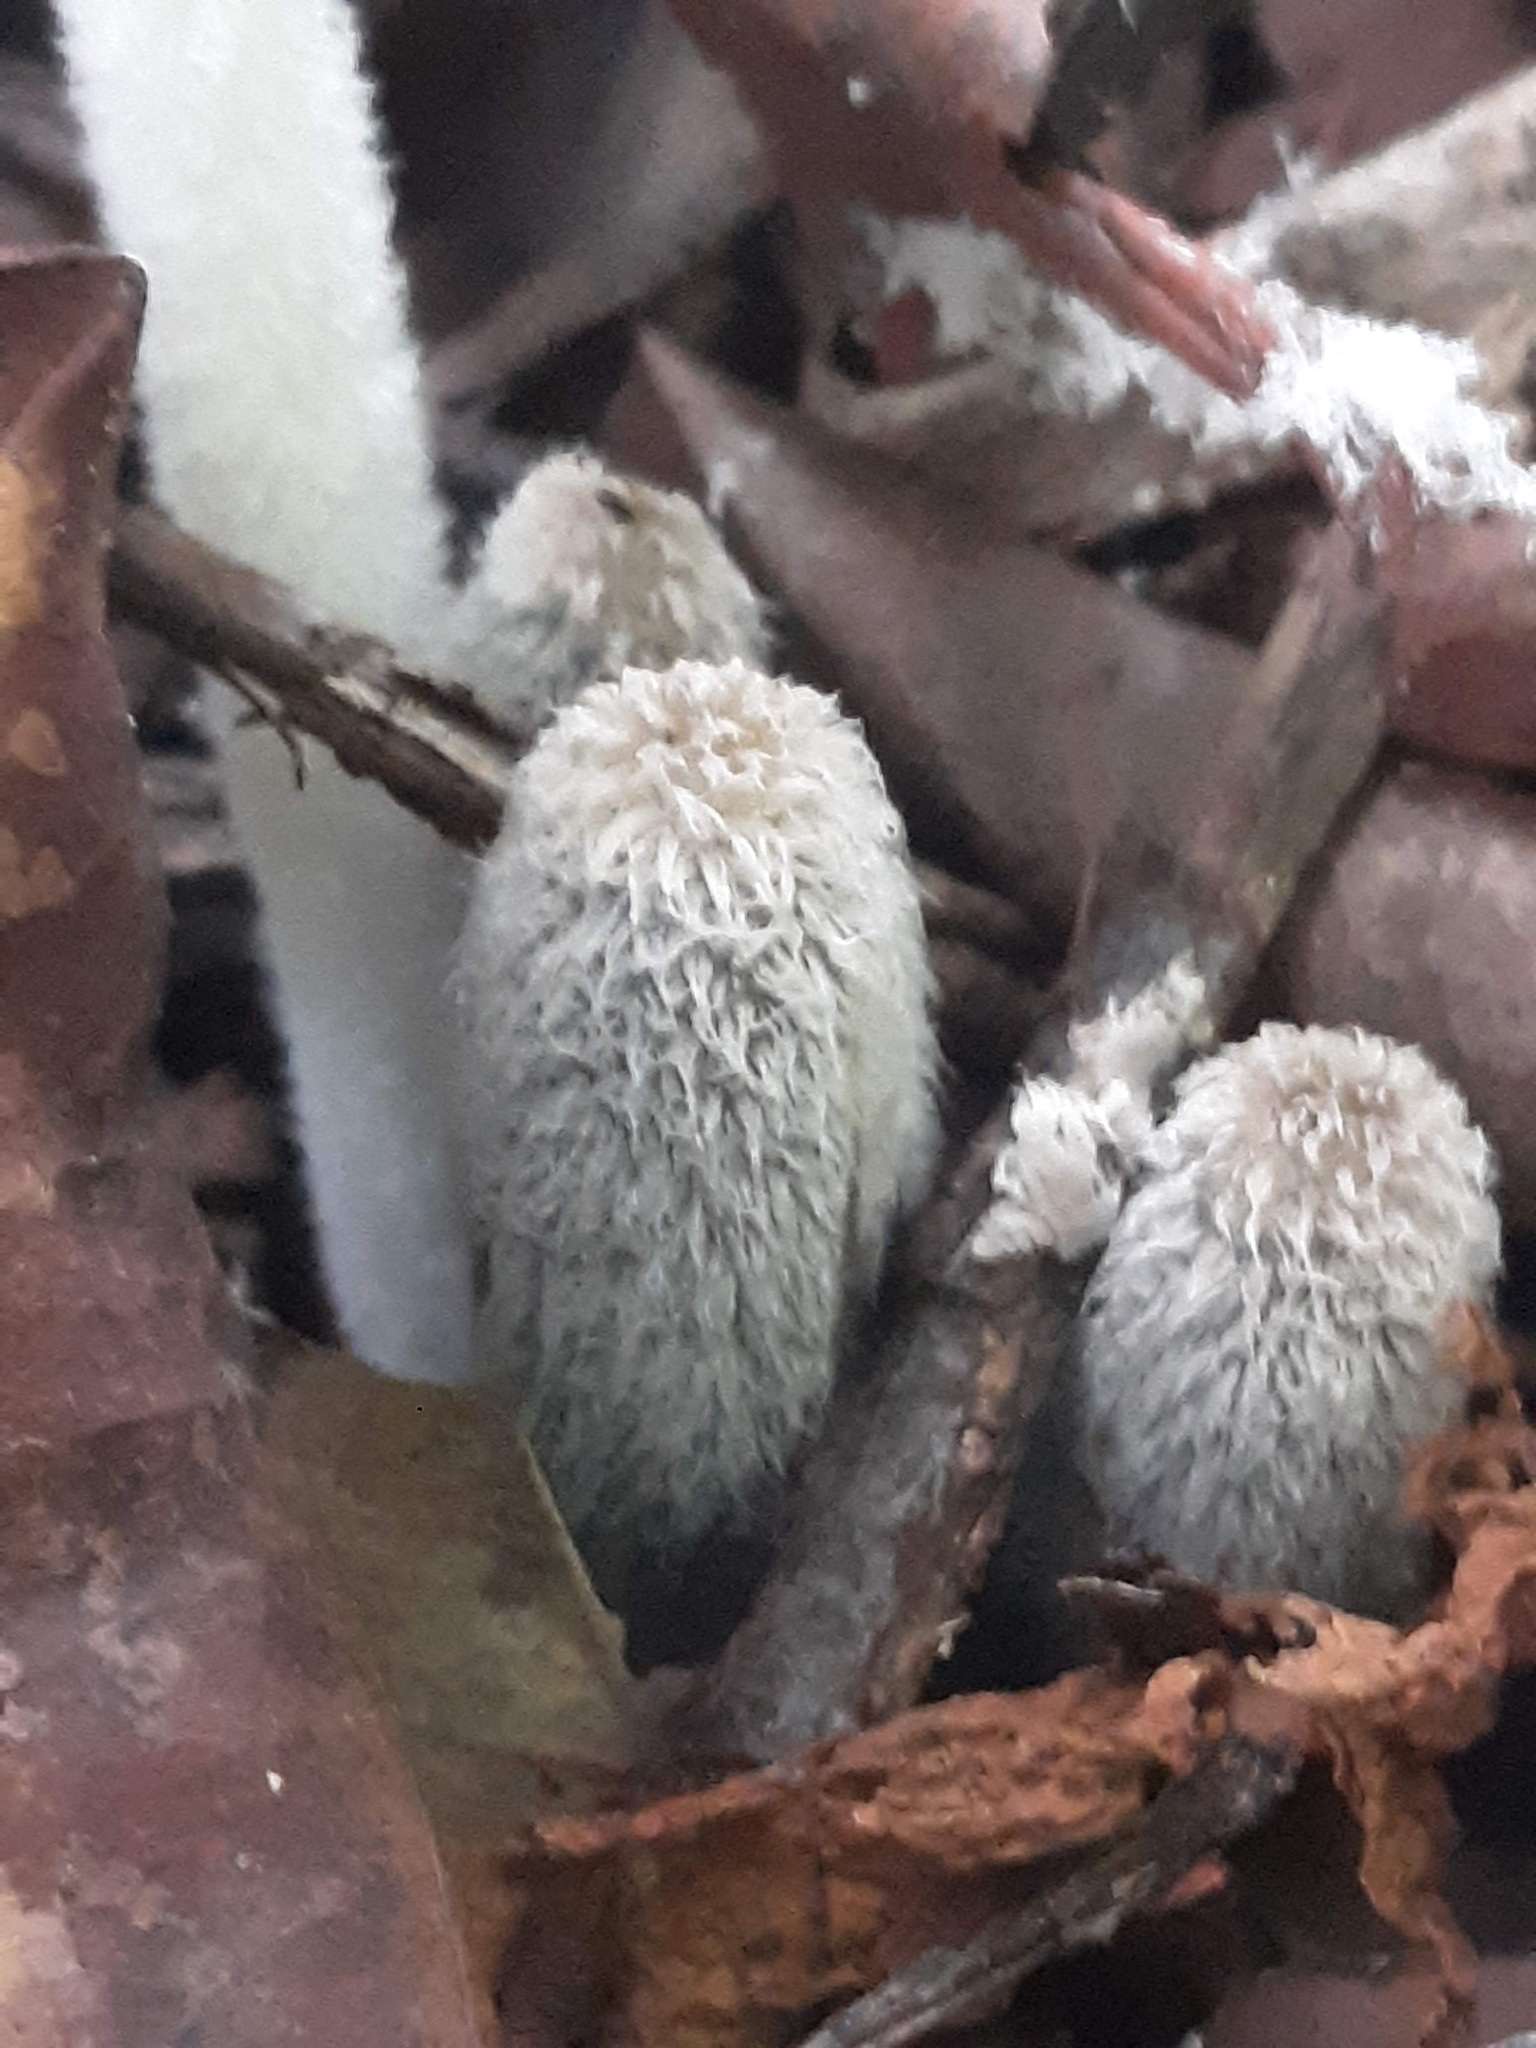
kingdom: Fungi
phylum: Basidiomycota
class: Agaricomycetes
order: Agaricales
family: Psathyrellaceae
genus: Coprinopsis
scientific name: Coprinopsis lagopus
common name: Hare'sfoot inkcap
